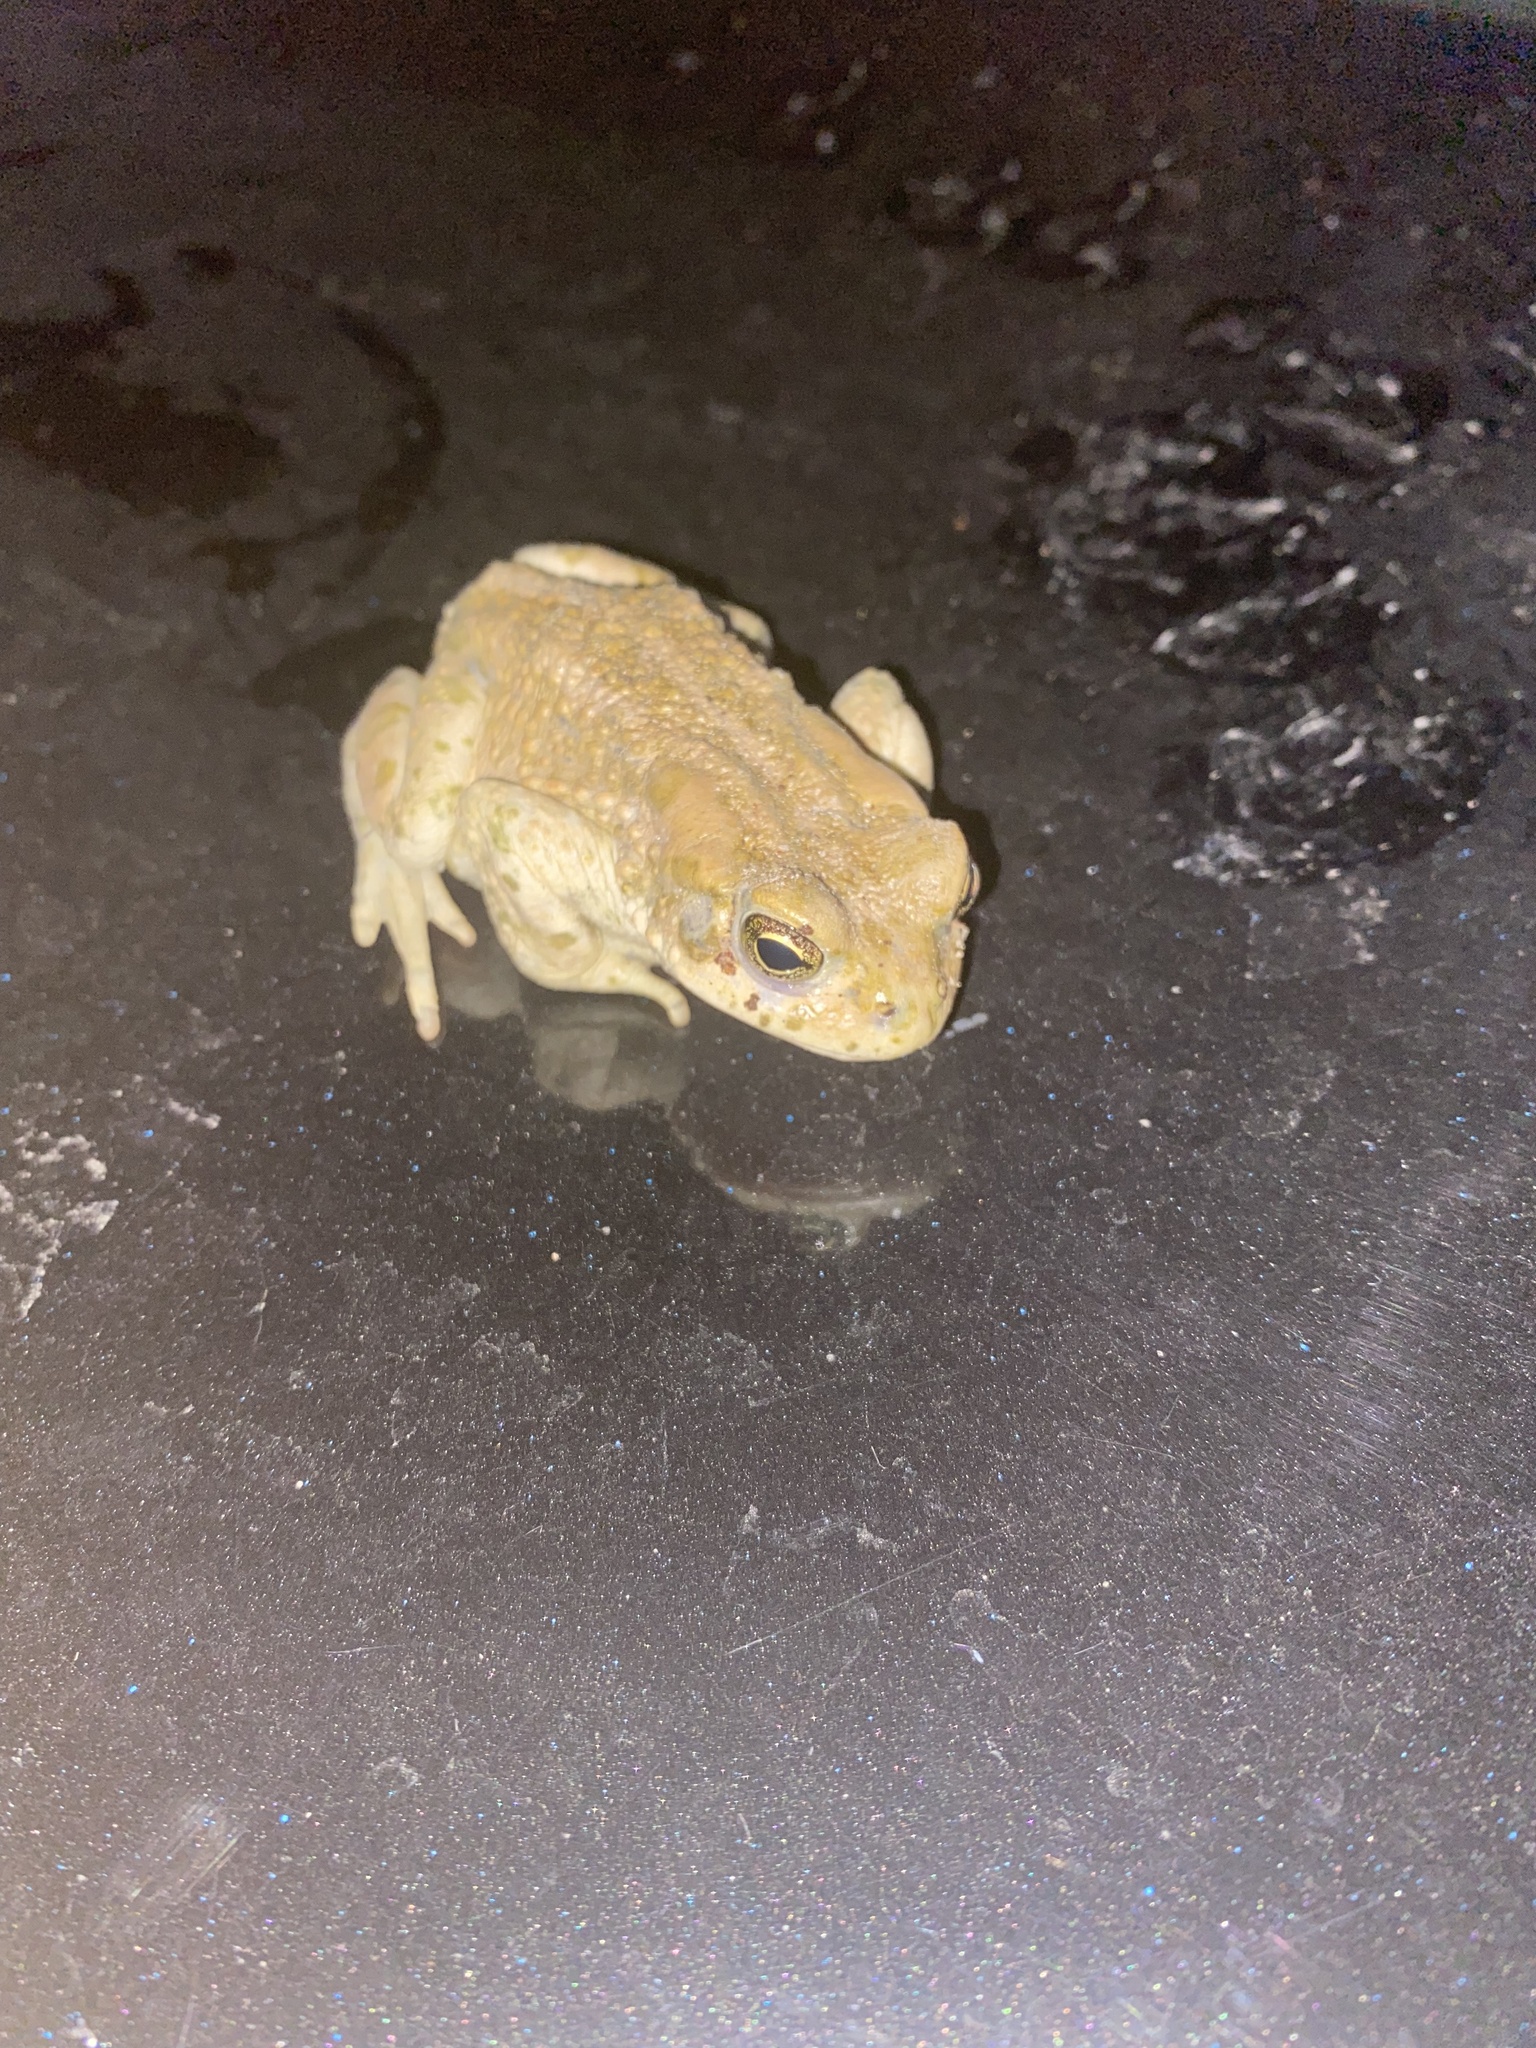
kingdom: Animalia
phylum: Chordata
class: Amphibia
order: Anura
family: Bufonidae
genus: Bufotes
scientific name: Bufotes viridis
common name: European green toad
